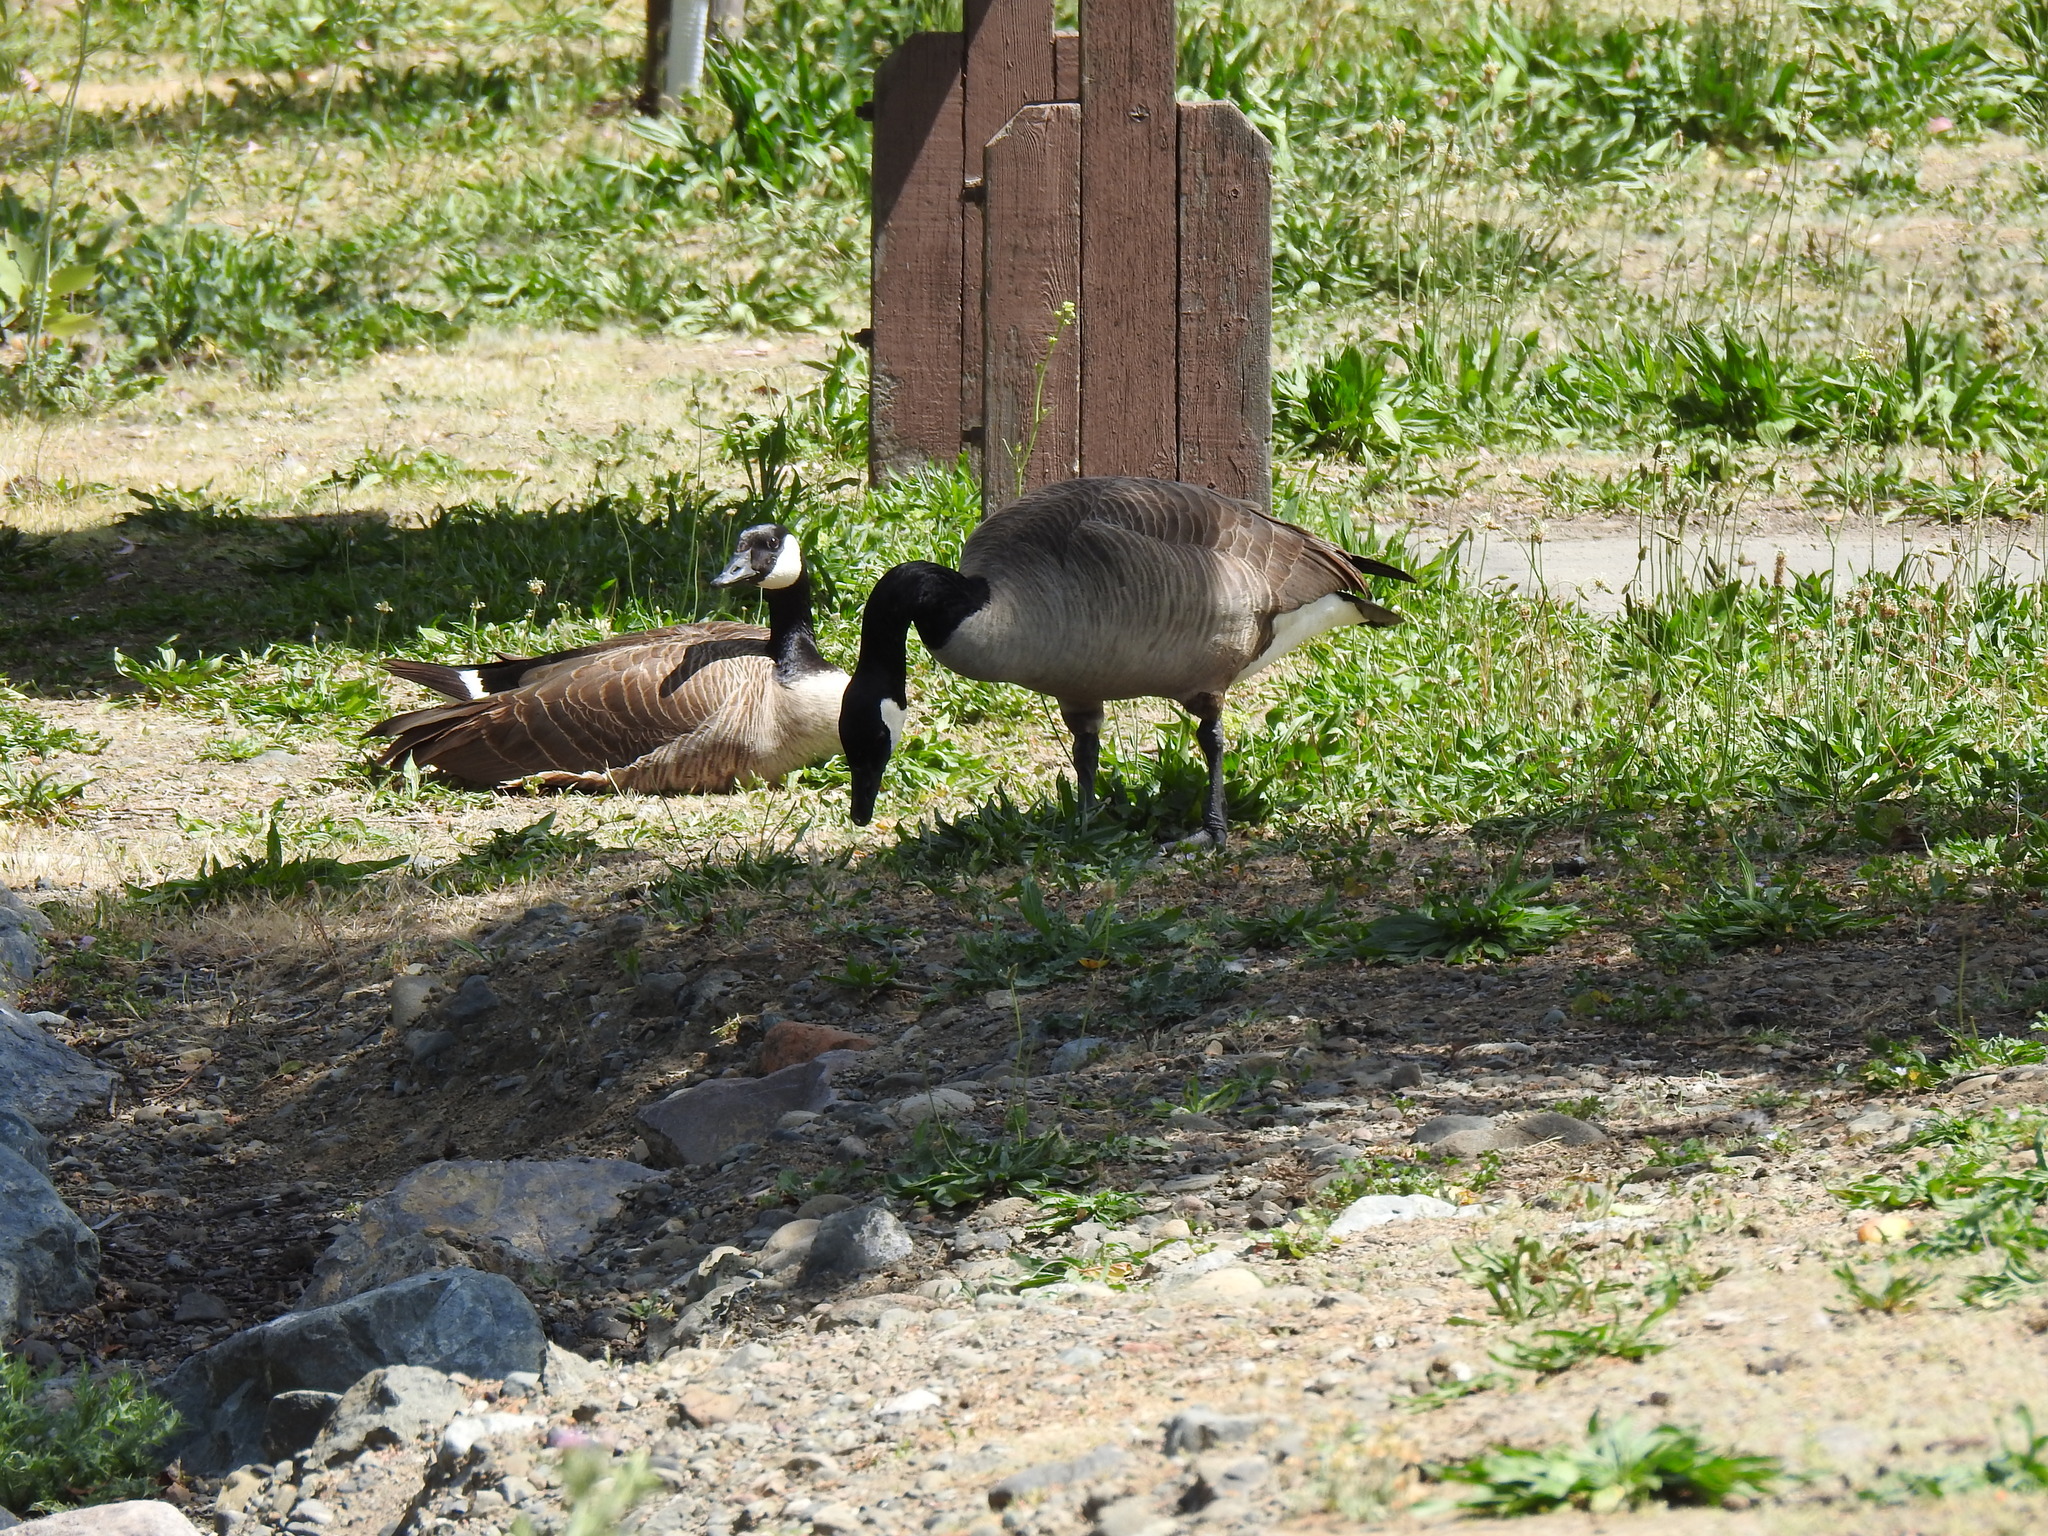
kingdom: Animalia
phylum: Chordata
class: Aves
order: Anseriformes
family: Anatidae
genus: Branta
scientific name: Branta canadensis
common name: Canada goose
